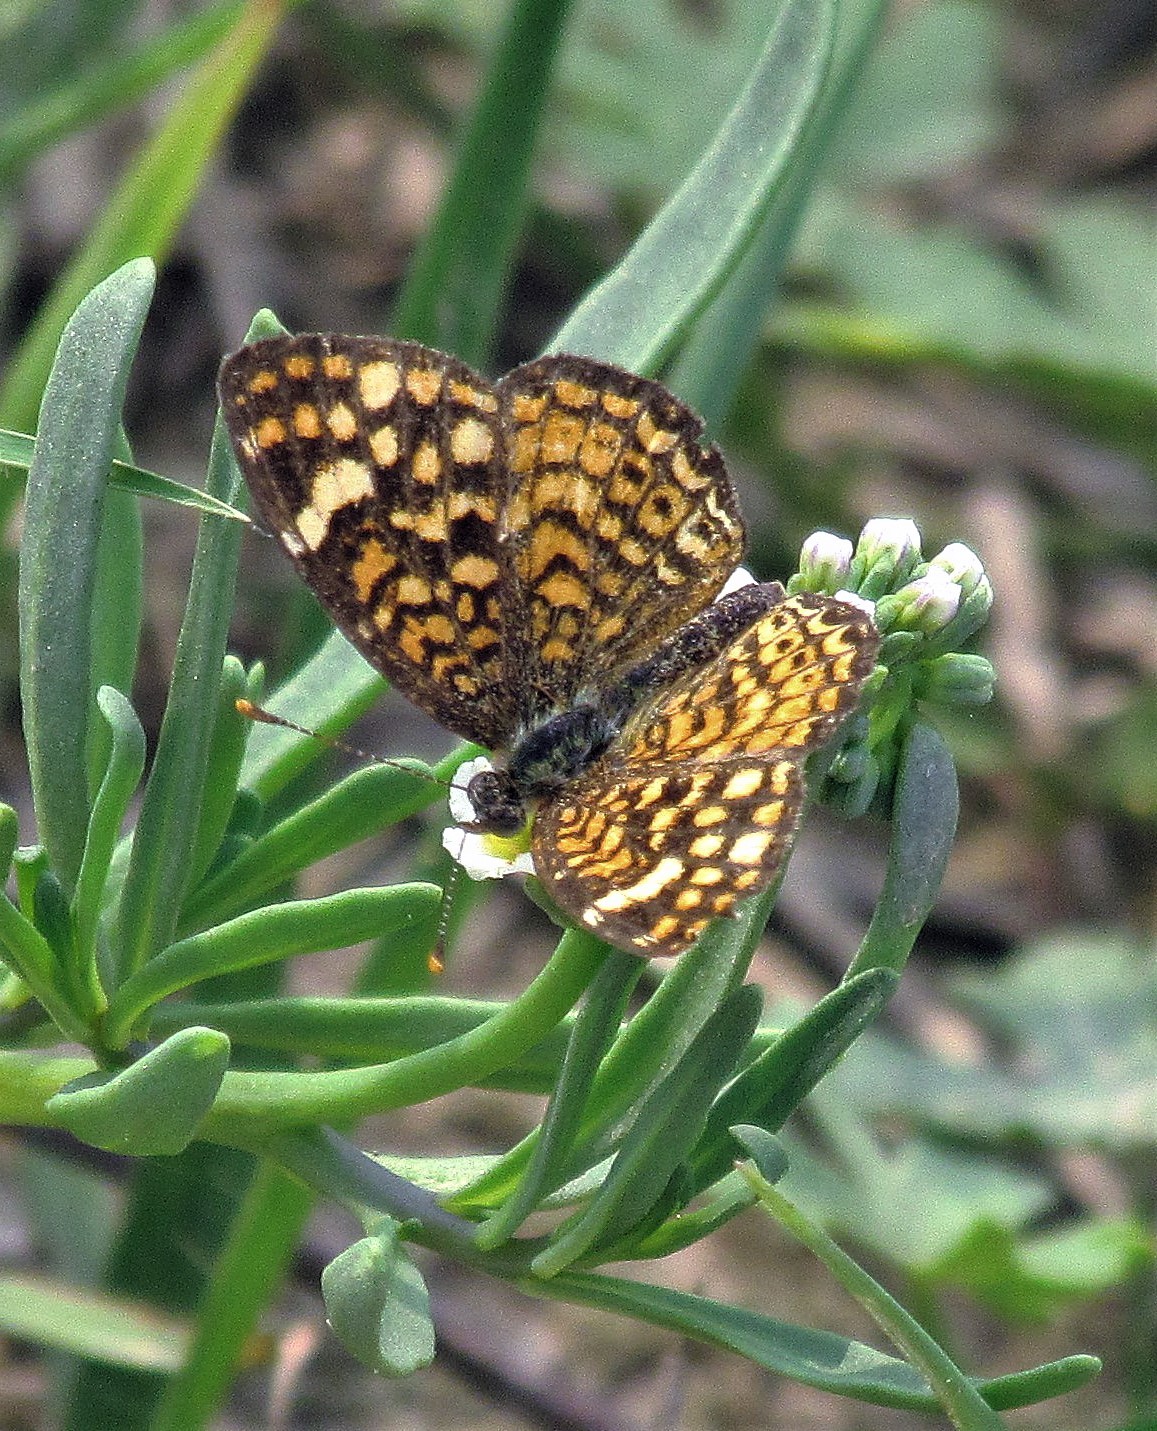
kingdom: Animalia
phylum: Arthropoda
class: Insecta
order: Lepidoptera
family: Nymphalidae
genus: Phystis
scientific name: Phystis simois
